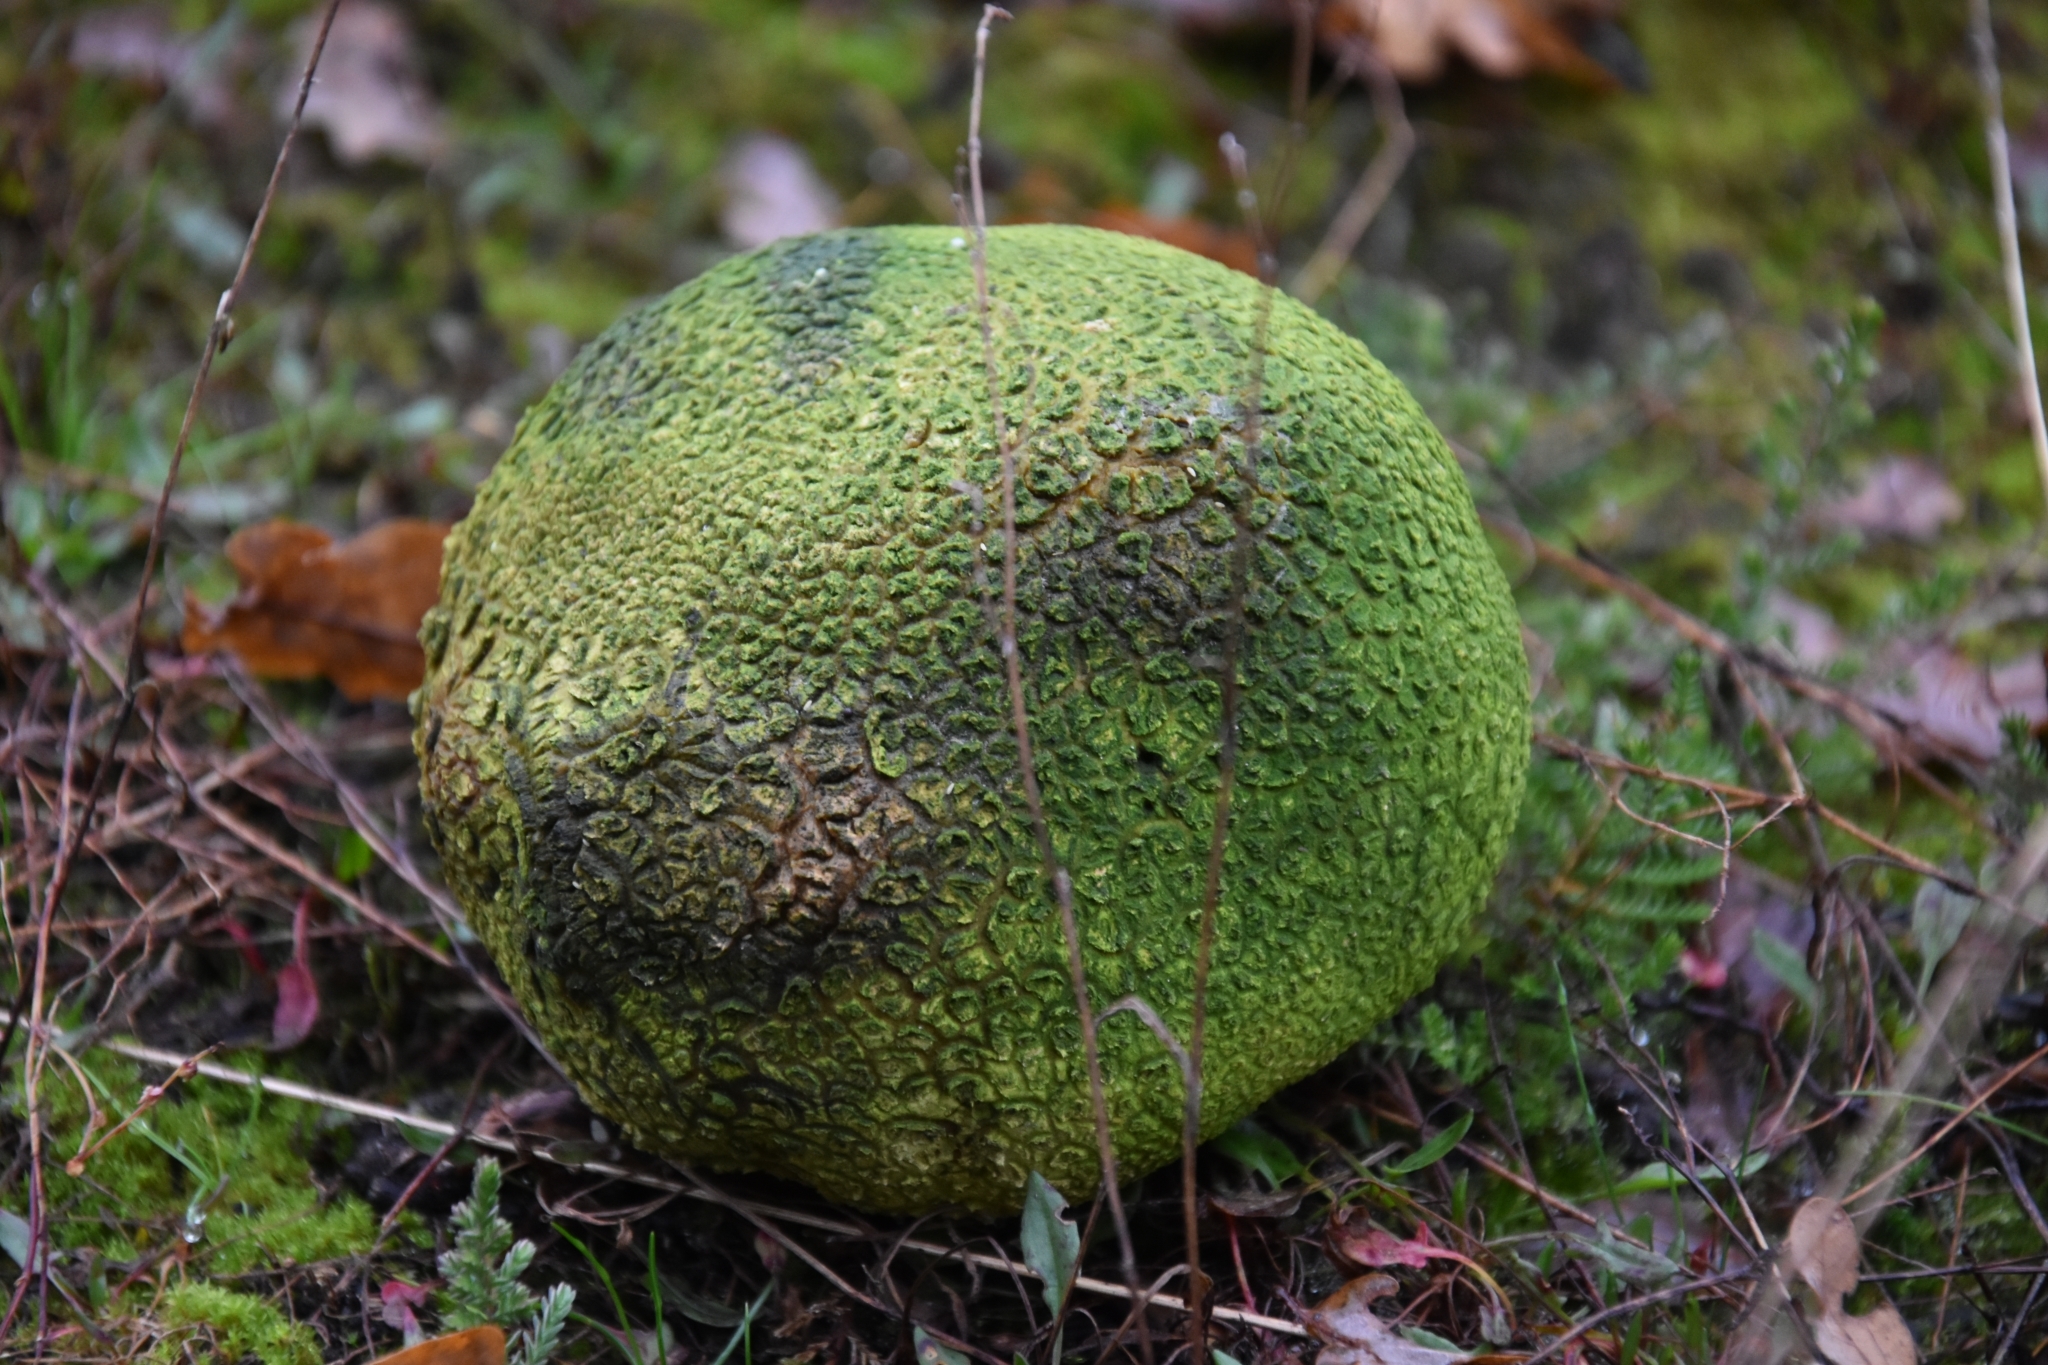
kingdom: Fungi
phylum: Basidiomycota
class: Agaricomycetes
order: Boletales
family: Sclerodermataceae
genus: Scleroderma
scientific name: Scleroderma citrinum
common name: Common earthball
